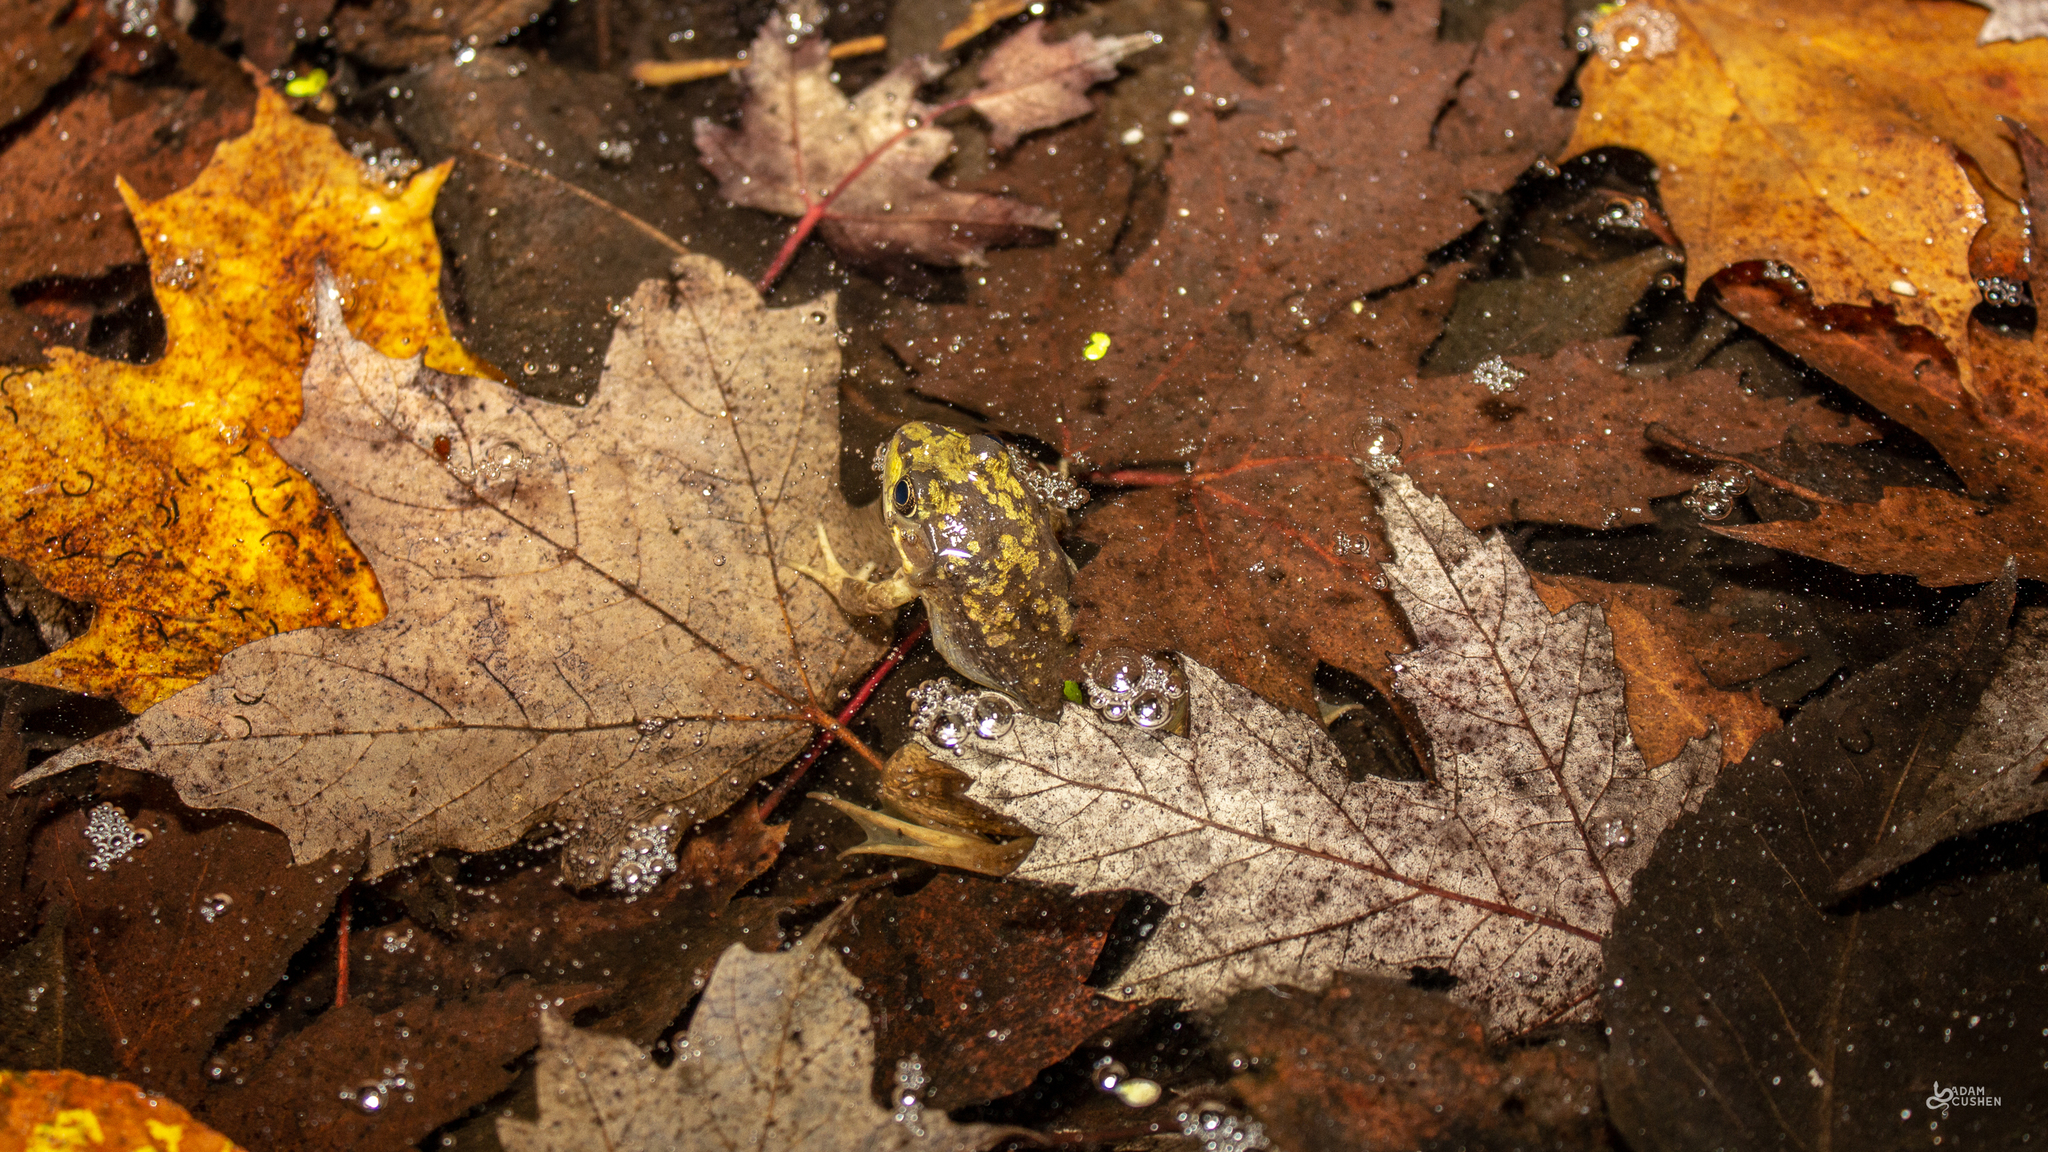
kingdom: Animalia
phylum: Chordata
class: Amphibia
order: Anura
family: Ranidae
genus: Lithobates
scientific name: Lithobates clamitans
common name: Green frog
